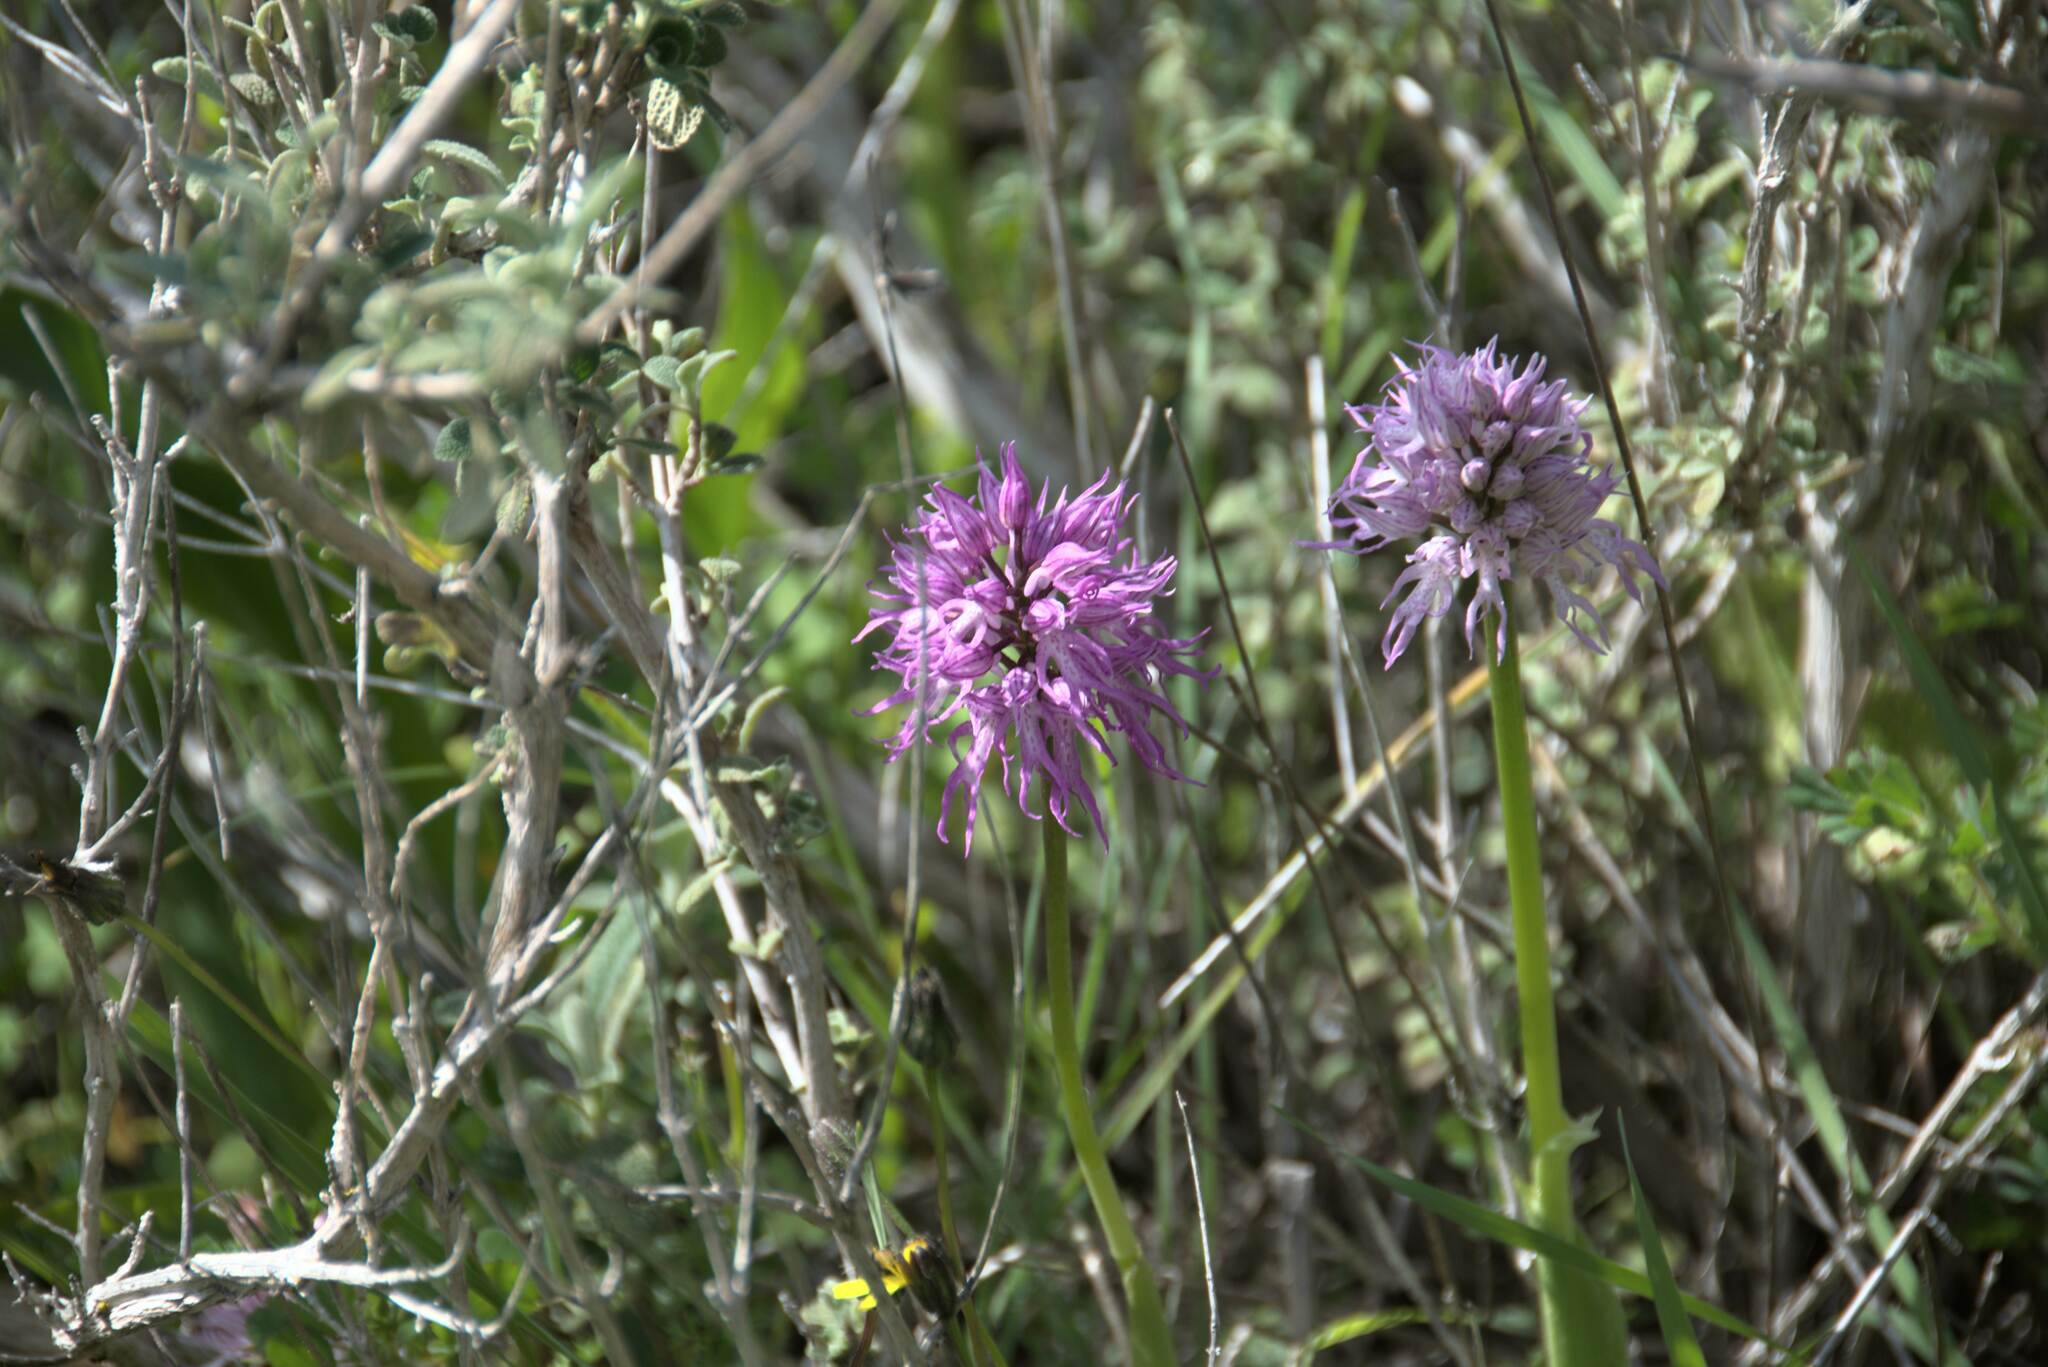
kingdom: Plantae
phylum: Tracheophyta
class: Liliopsida
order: Asparagales
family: Orchidaceae
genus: Orchis
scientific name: Orchis italica
